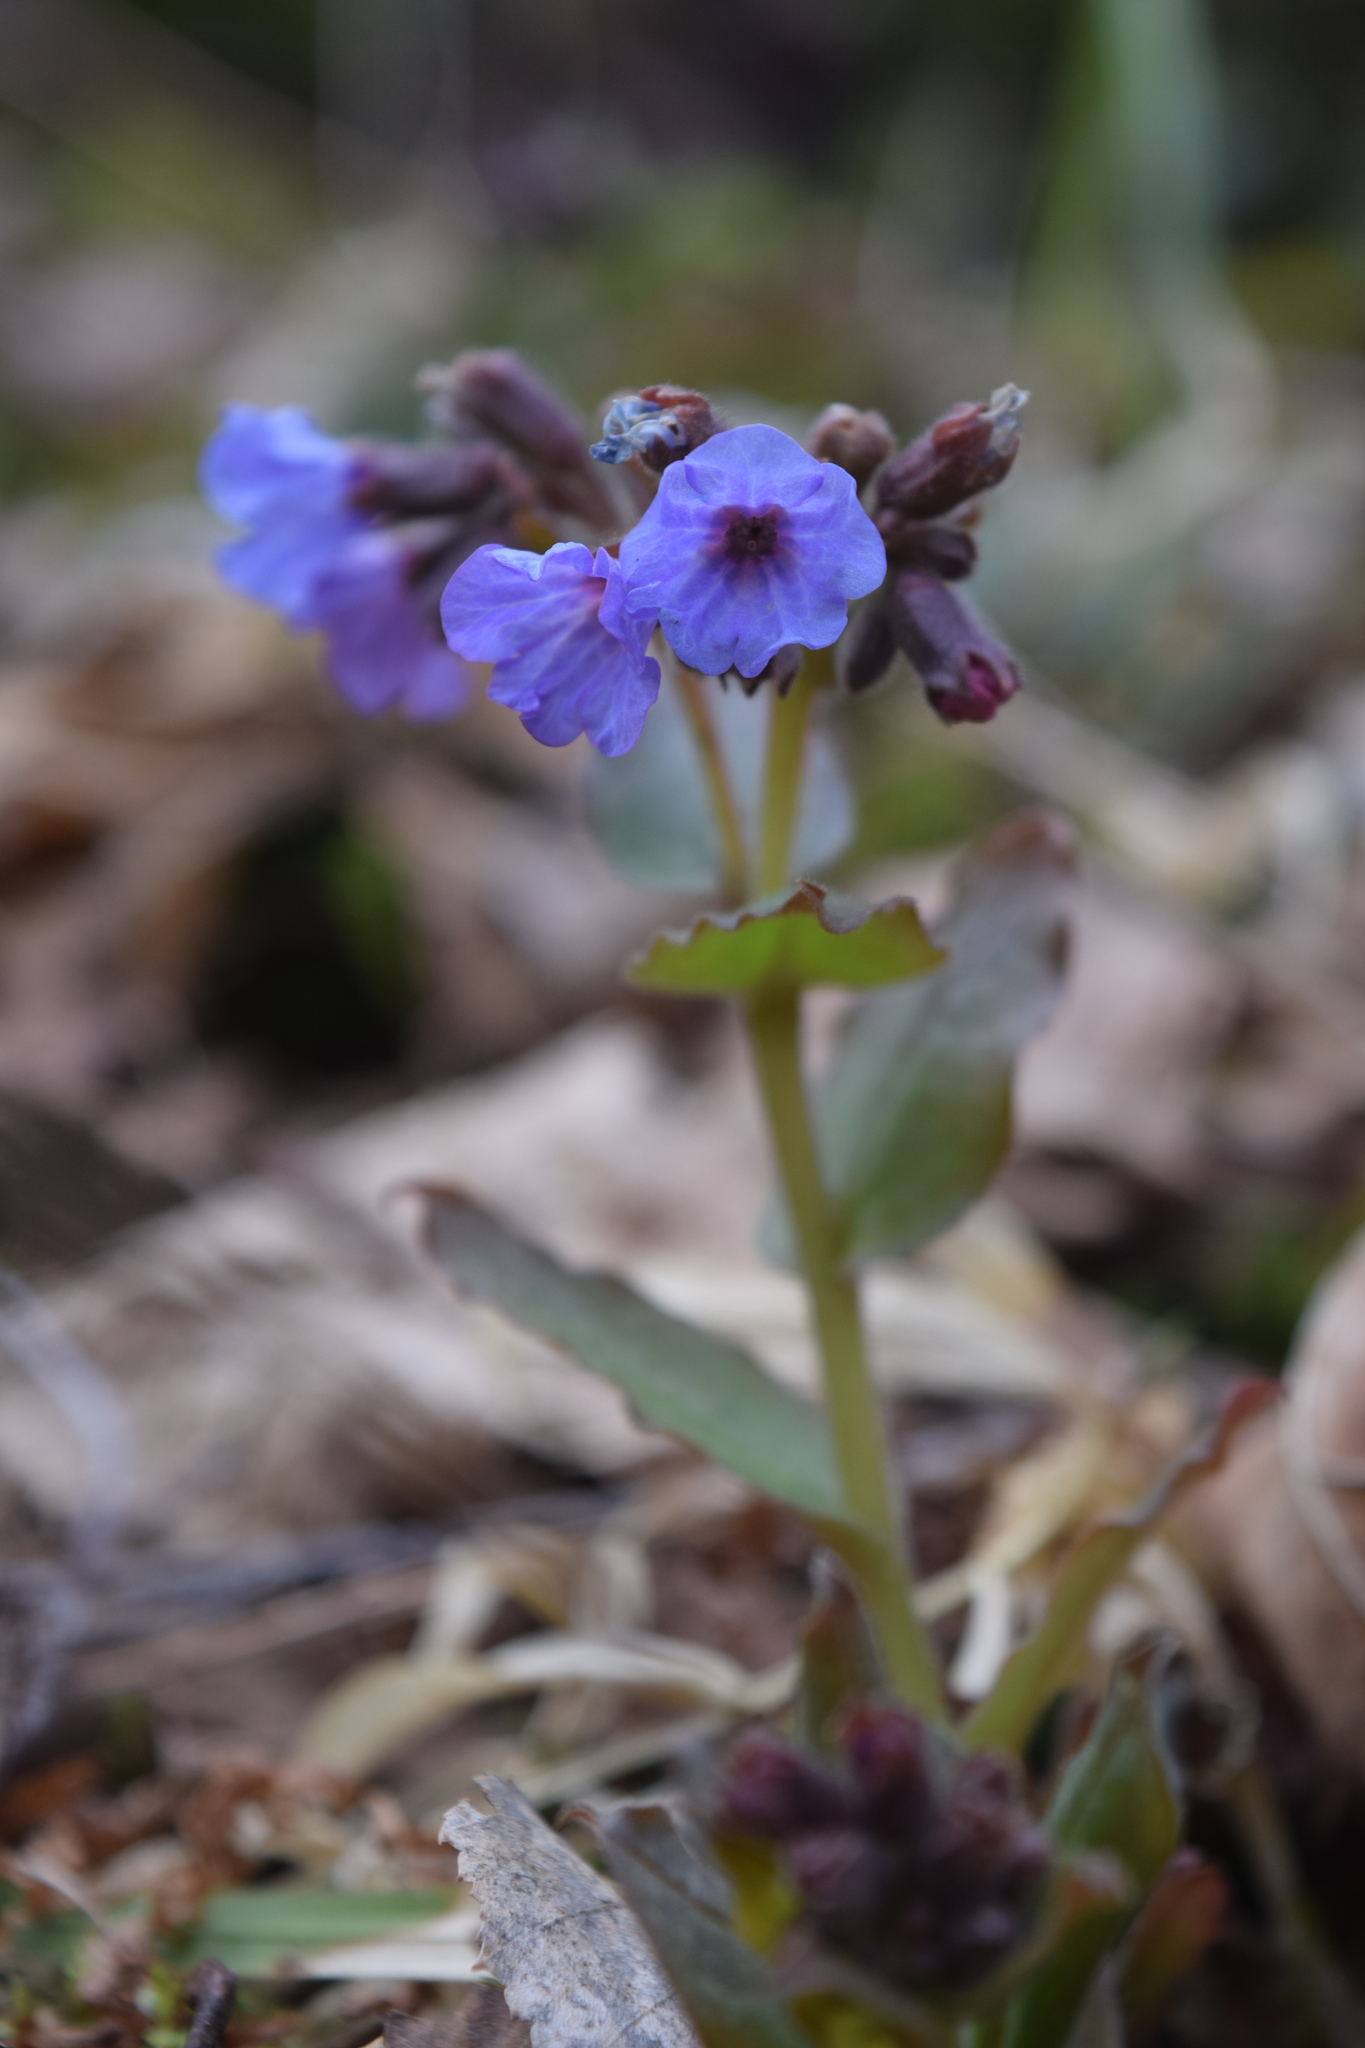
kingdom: Plantae
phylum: Tracheophyta
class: Magnoliopsida
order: Boraginales
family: Boraginaceae
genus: Pulmonaria
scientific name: Pulmonaria obscura
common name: Suffolk lungwort
